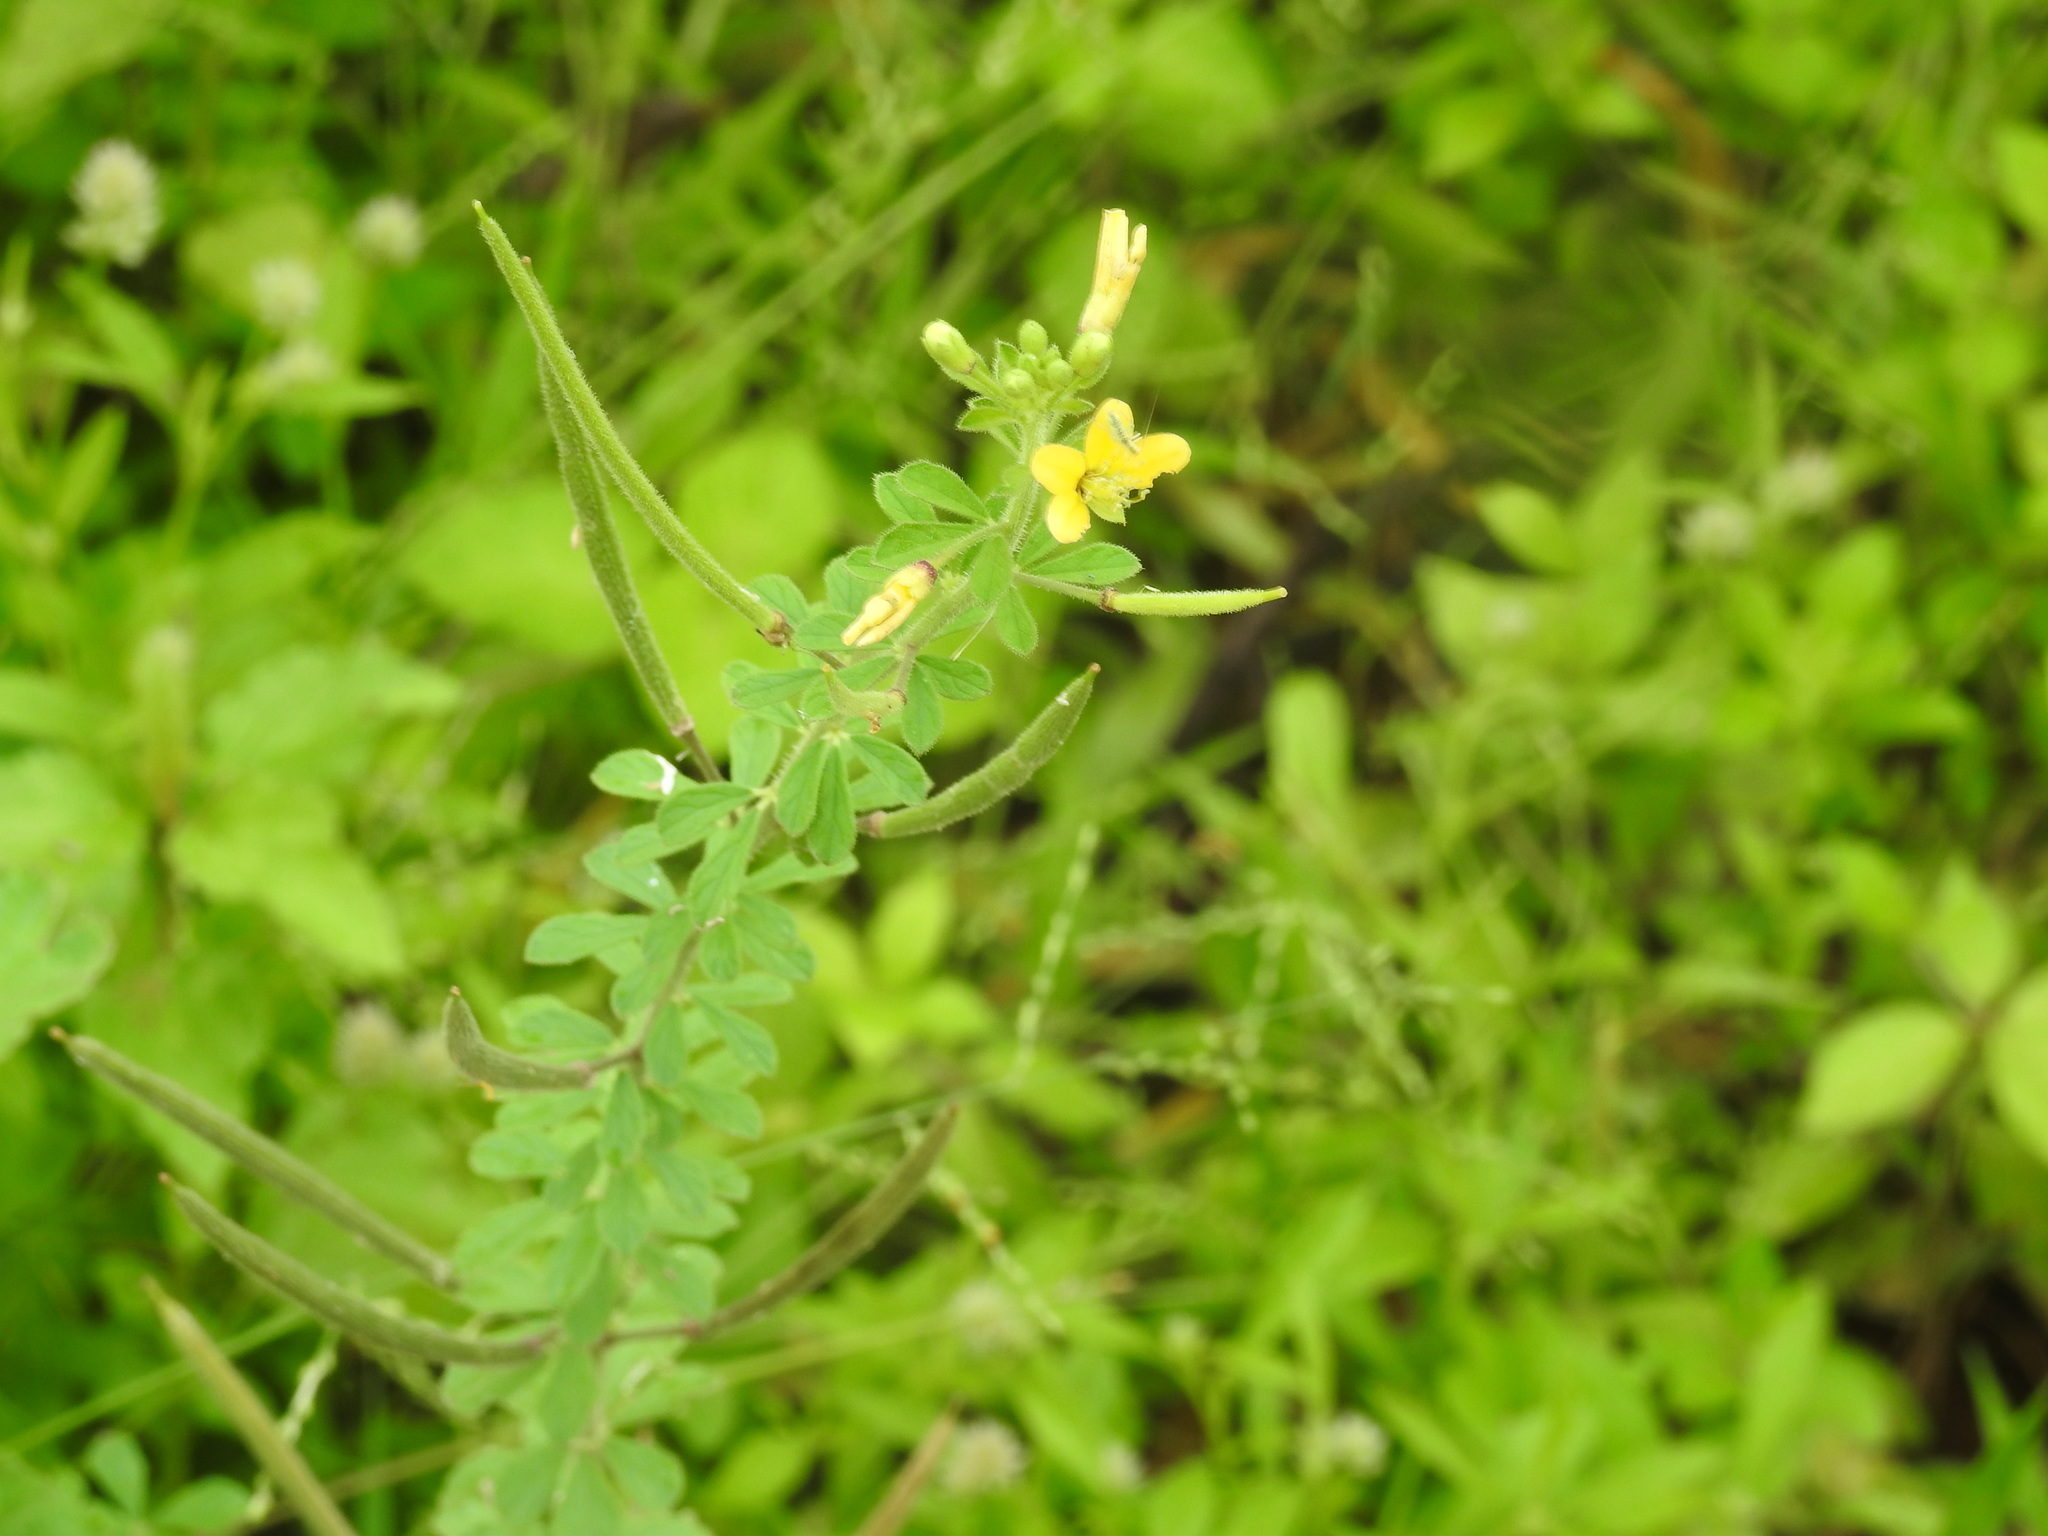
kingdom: Plantae
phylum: Tracheophyta
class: Magnoliopsida
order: Brassicales
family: Cleomaceae
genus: Arivela
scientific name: Arivela viscosa
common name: Asian spiderflower
